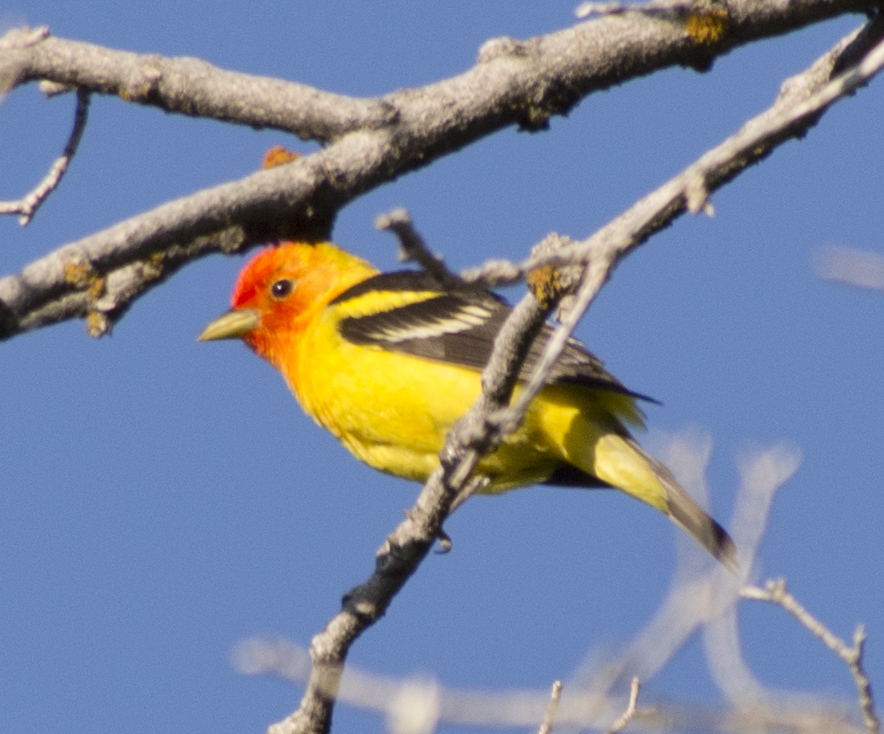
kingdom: Animalia
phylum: Chordata
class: Aves
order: Passeriformes
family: Cardinalidae
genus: Piranga
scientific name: Piranga ludoviciana
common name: Western tanager
